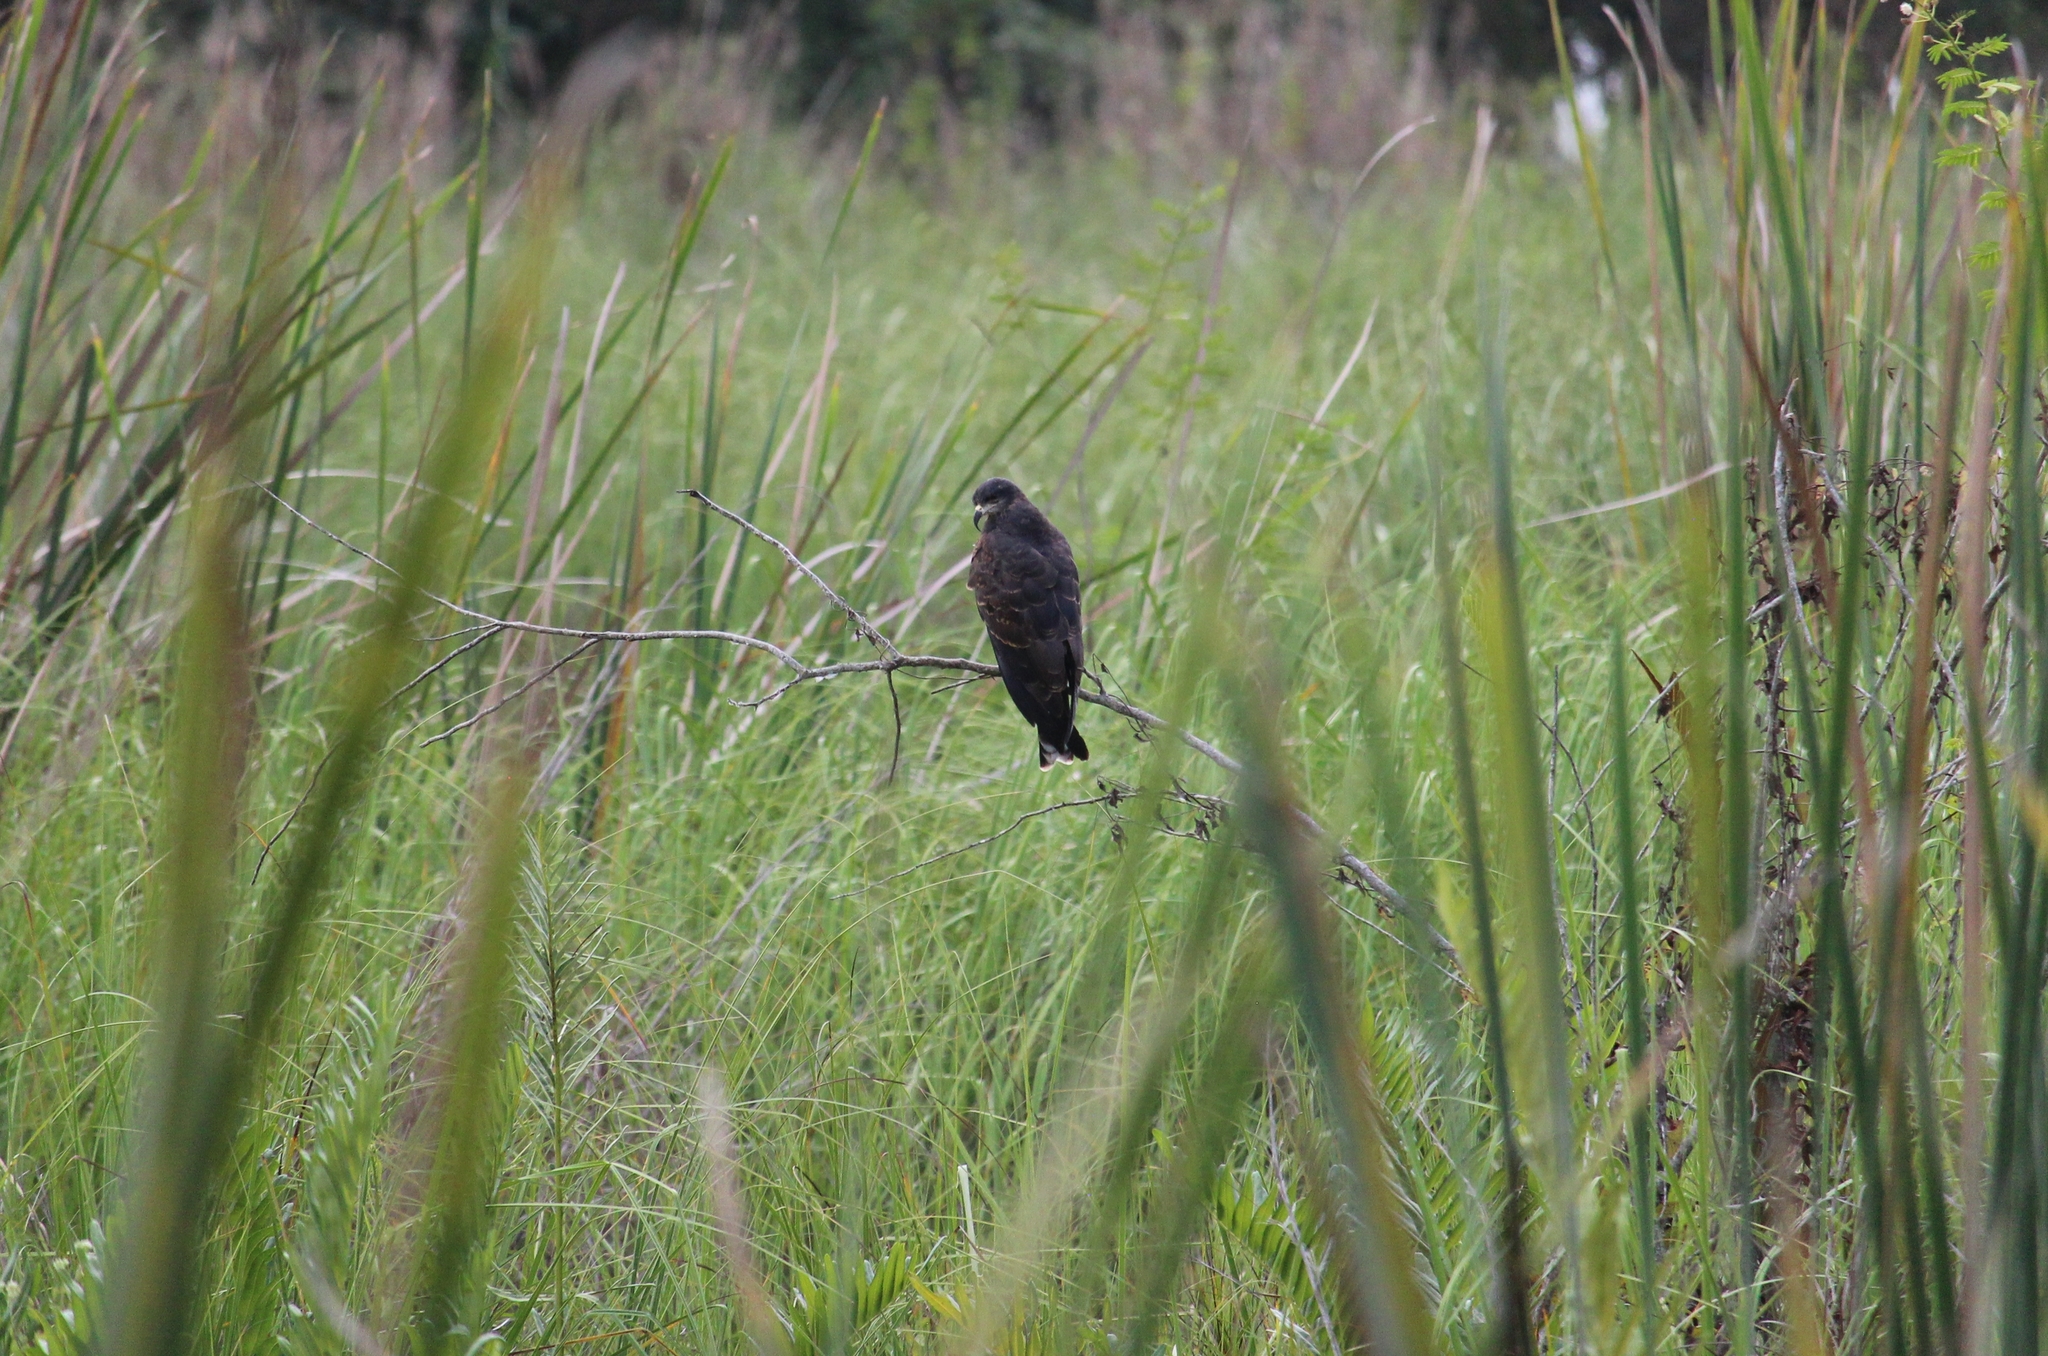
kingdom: Animalia
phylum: Chordata
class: Aves
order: Accipitriformes
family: Accipitridae
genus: Rostrhamus
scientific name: Rostrhamus sociabilis
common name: Snail kite
